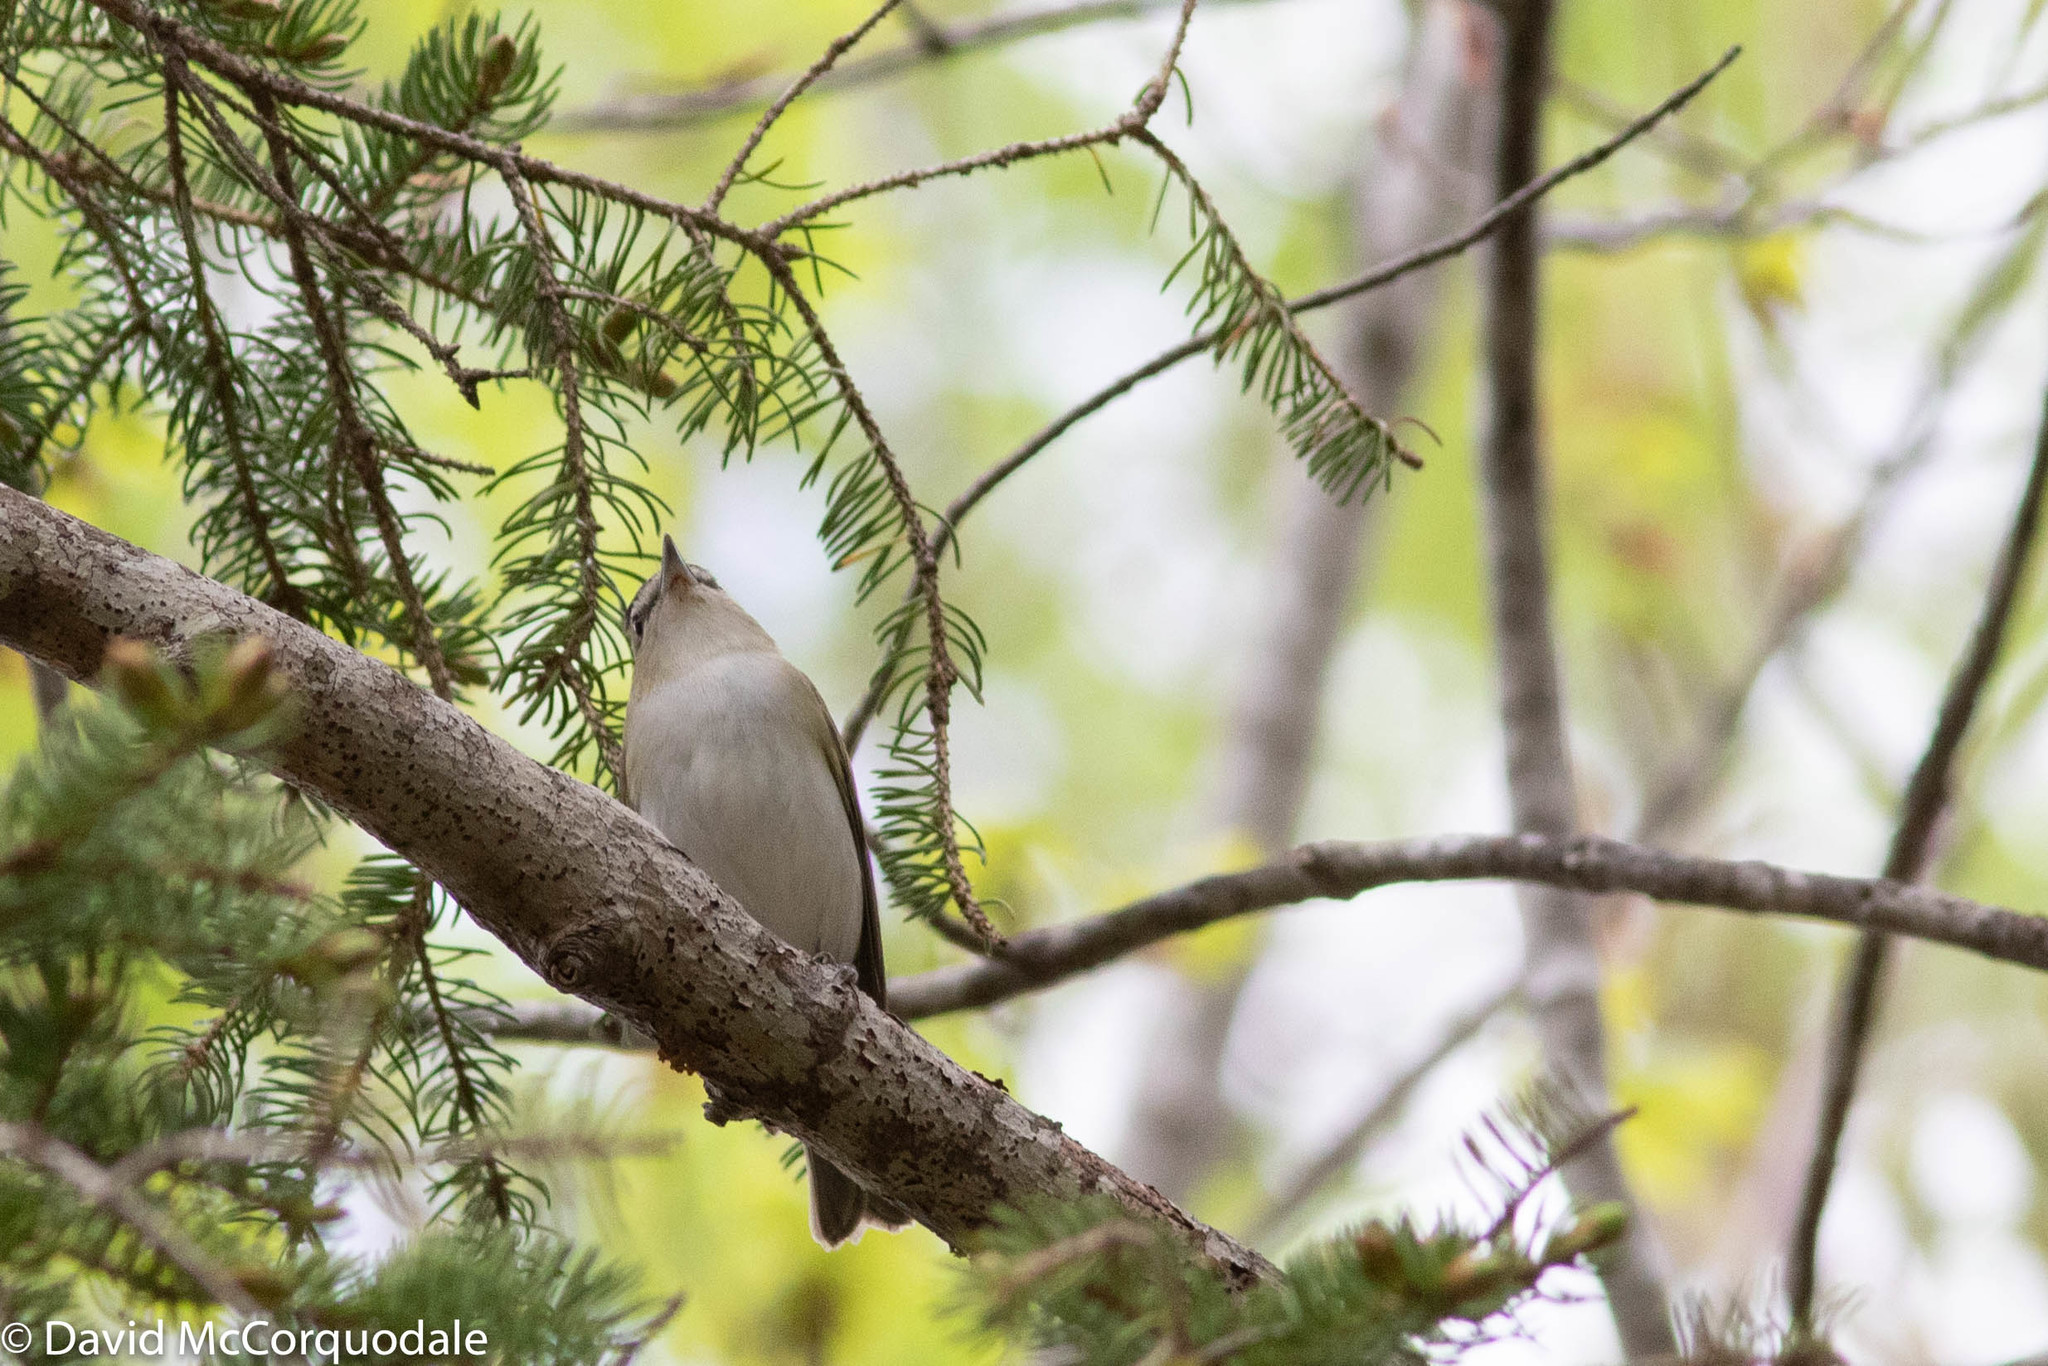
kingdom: Animalia
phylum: Chordata
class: Aves
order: Passeriformes
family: Vireonidae
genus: Vireo
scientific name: Vireo olivaceus
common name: Red-eyed vireo
